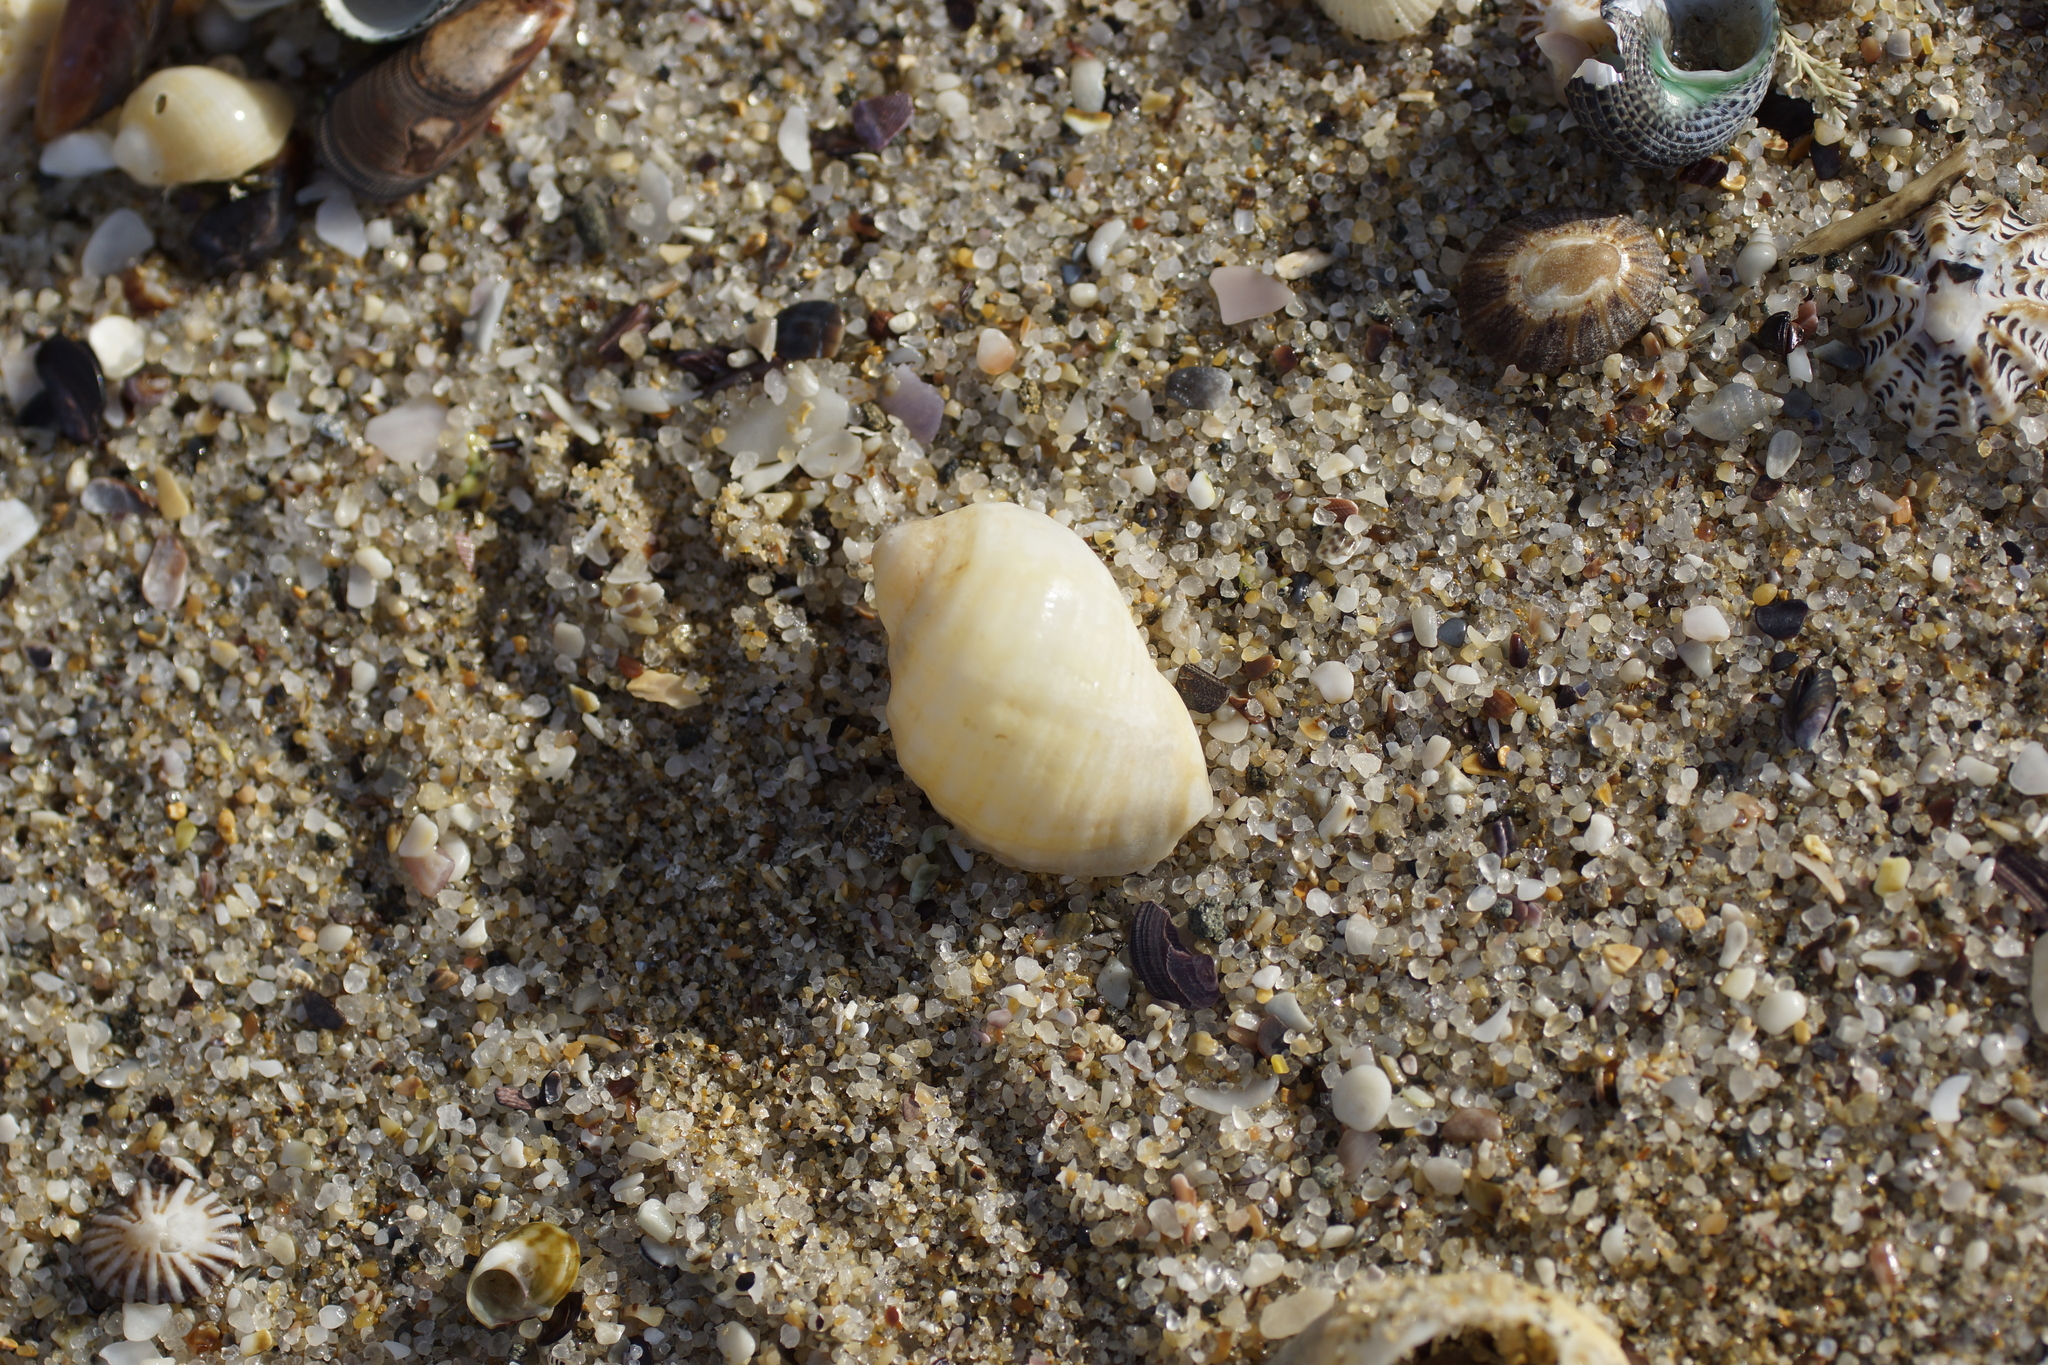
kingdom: Animalia
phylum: Mollusca
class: Gastropoda
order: Neogastropoda
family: Muricidae
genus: Dicathais
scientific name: Dicathais orbita
